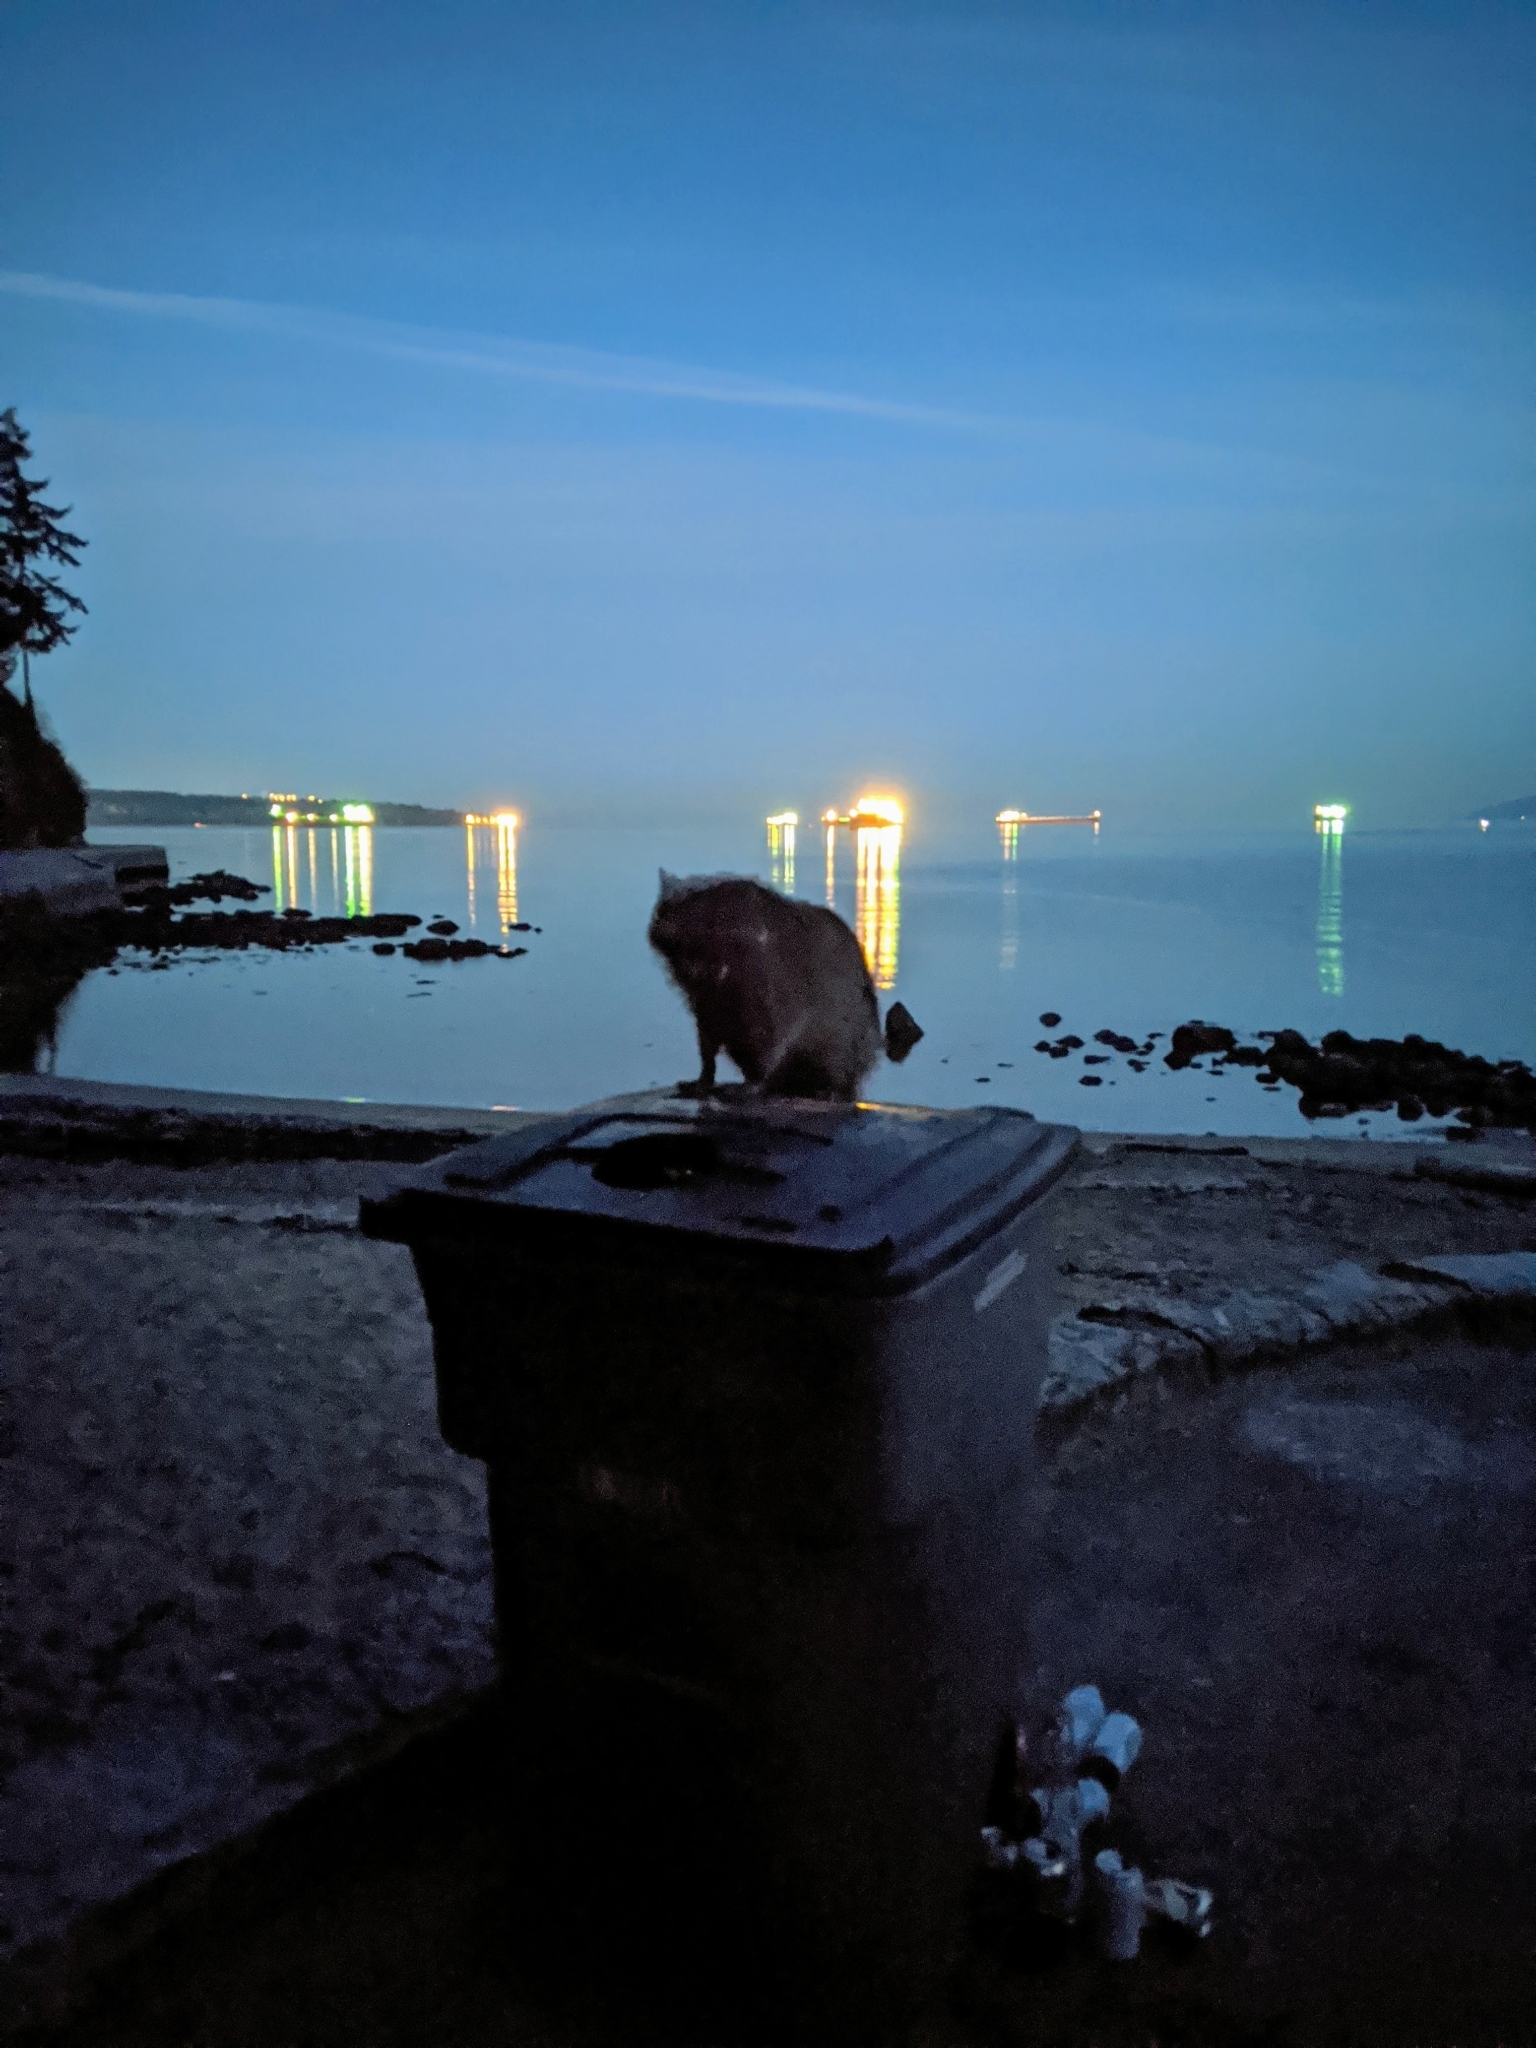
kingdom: Animalia
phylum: Chordata
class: Mammalia
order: Carnivora
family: Procyonidae
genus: Procyon
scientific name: Procyon lotor
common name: Raccoon
